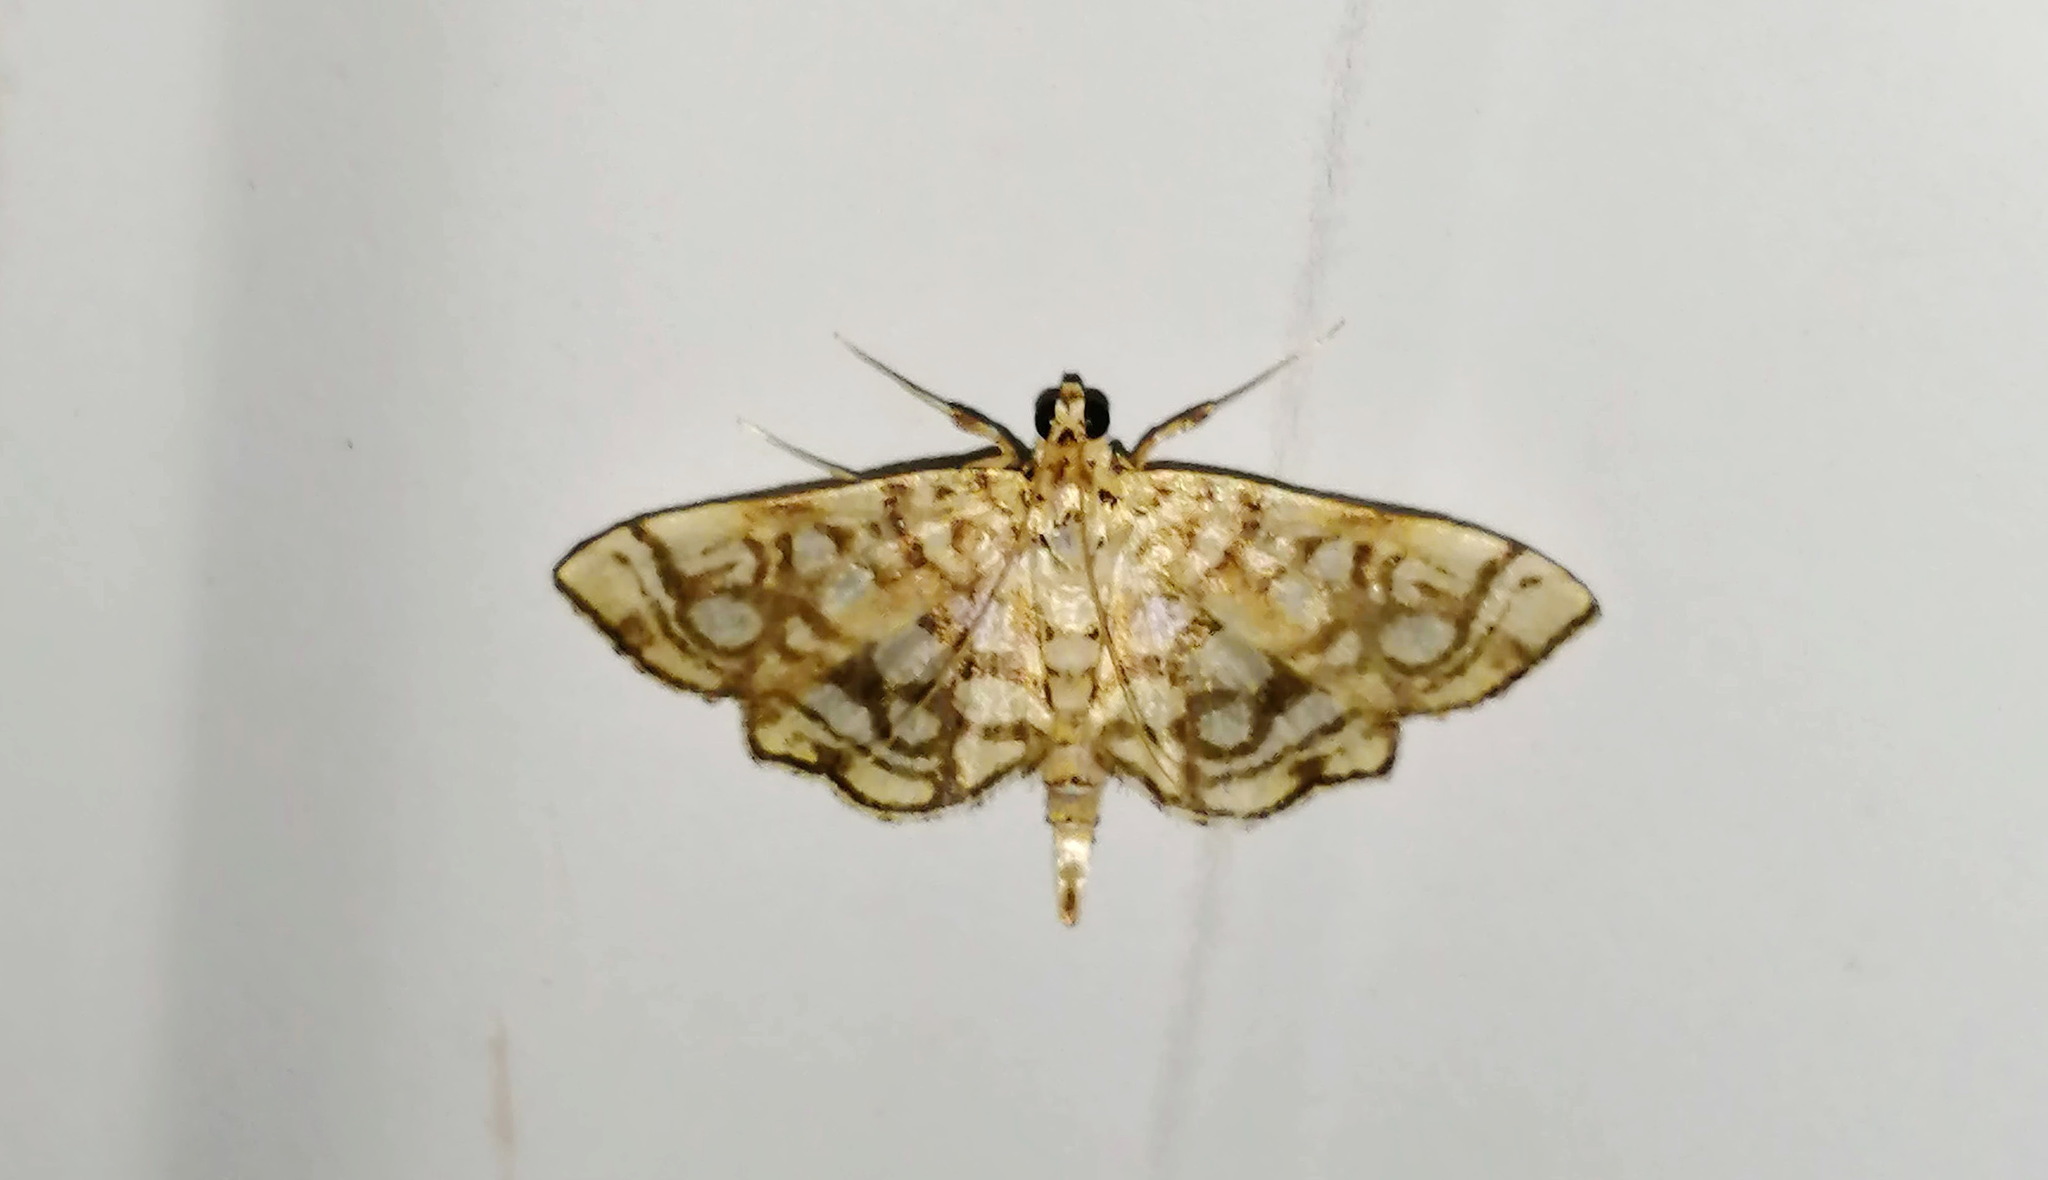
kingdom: Animalia
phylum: Arthropoda
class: Insecta
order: Lepidoptera
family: Crambidae
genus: Lygropia
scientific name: Lygropia rivulalis
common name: Bog lygropia moth
